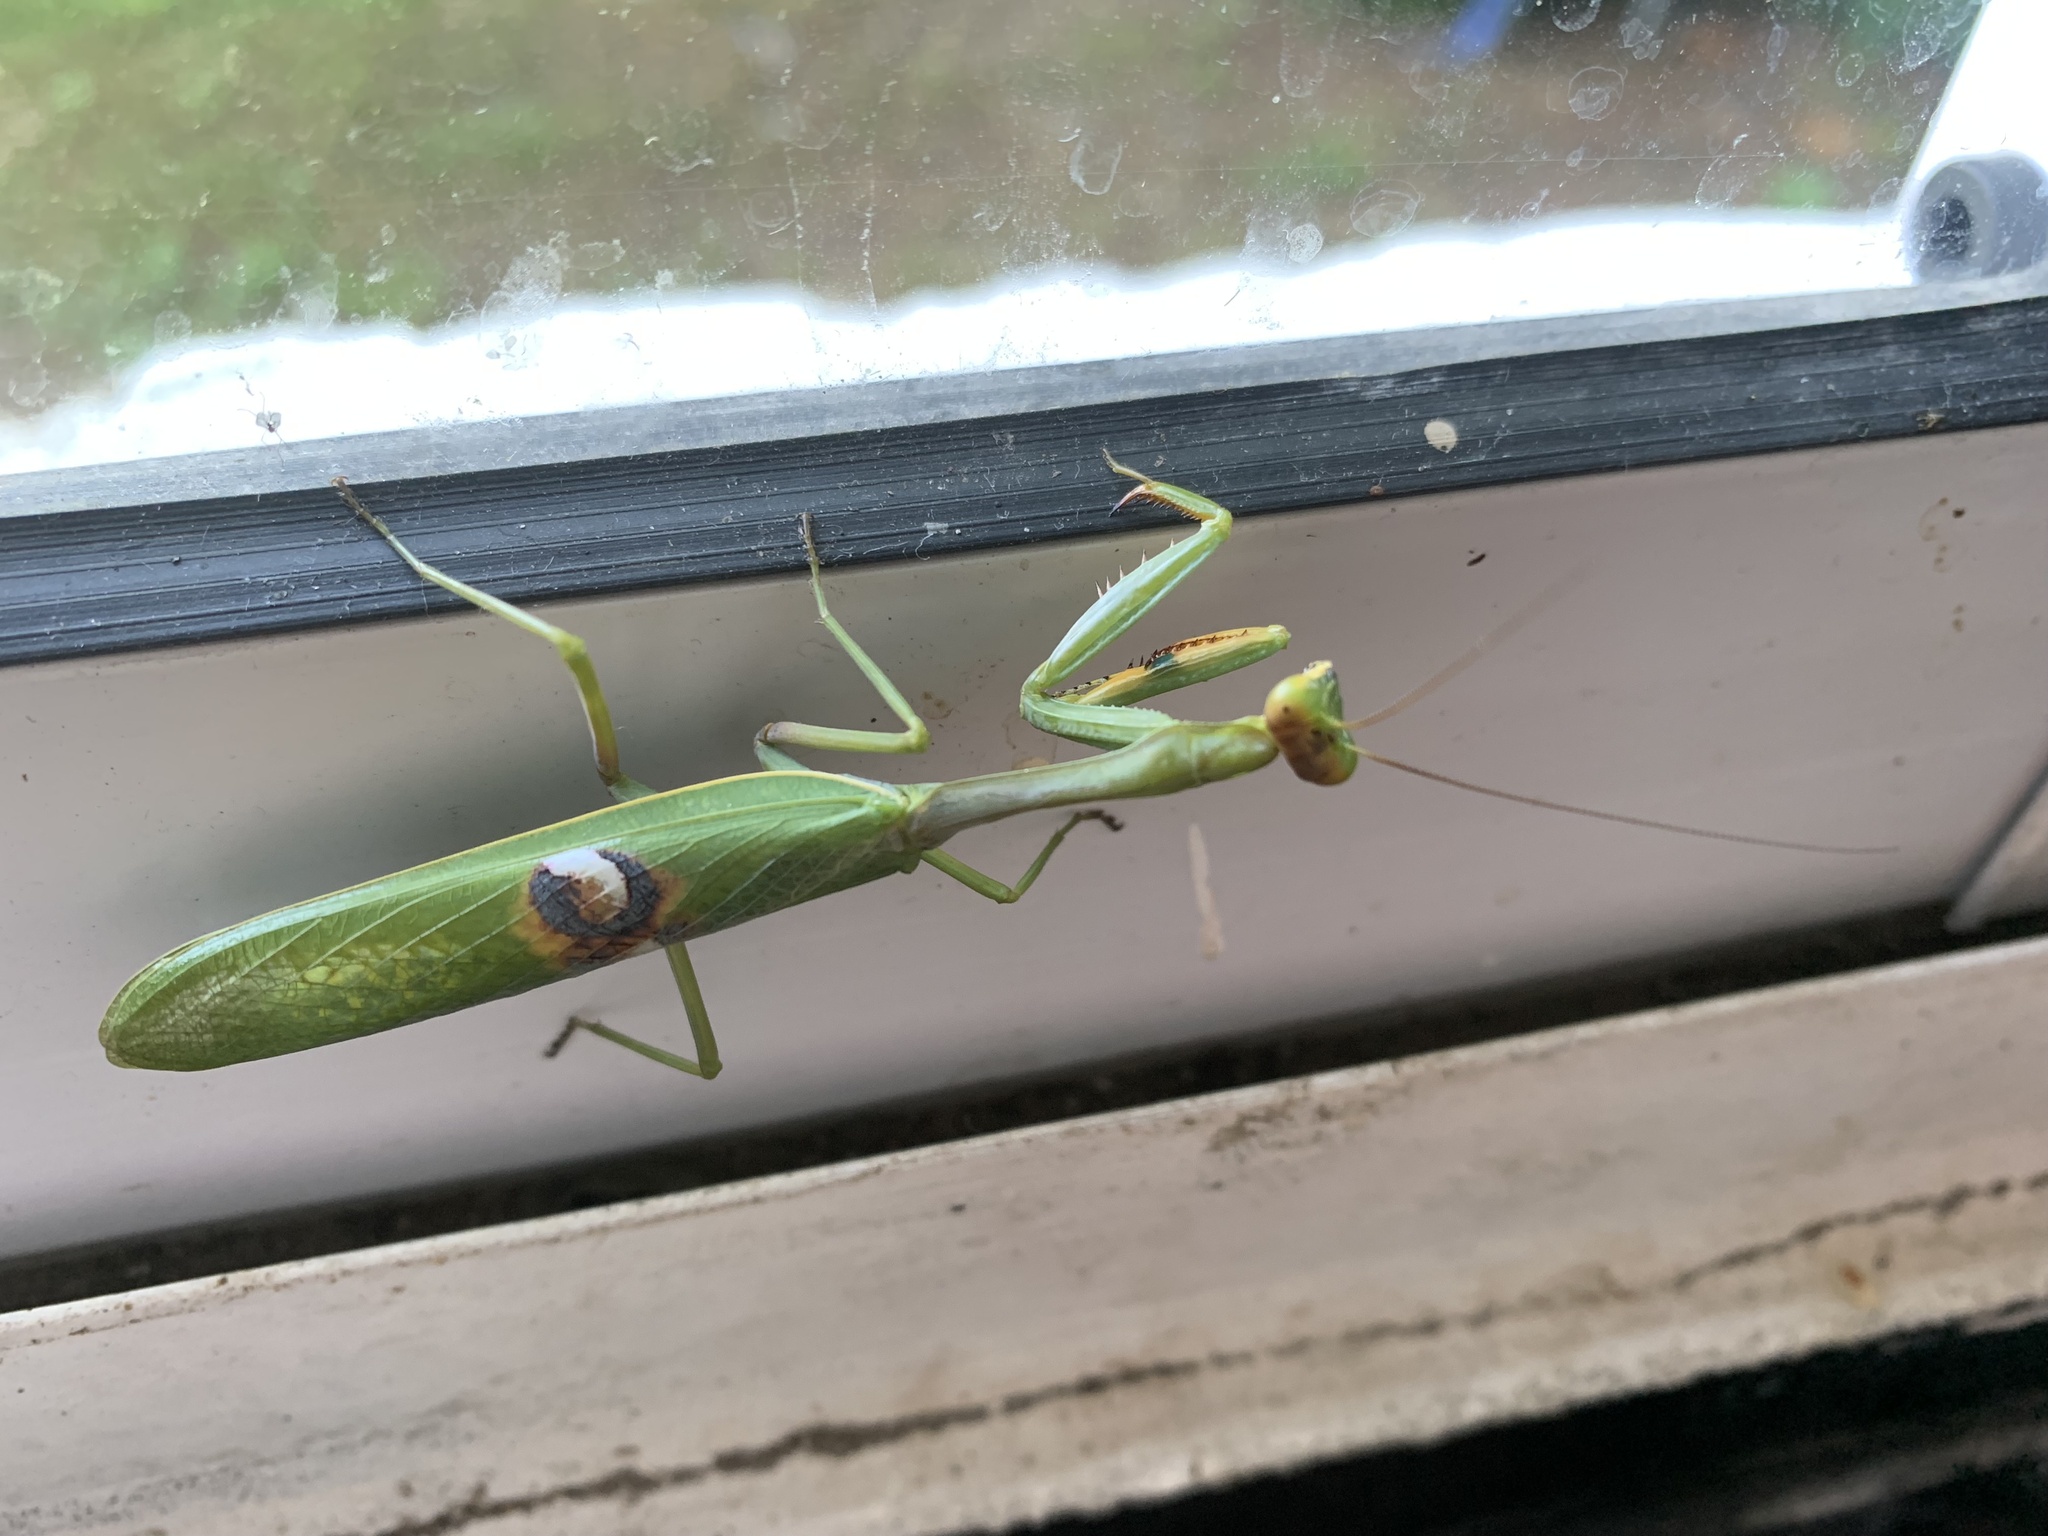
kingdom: Animalia
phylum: Arthropoda
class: Insecta
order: Mantodea
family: Mantidae
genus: Stagmatoptera
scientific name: Stagmatoptera hyaloptera
